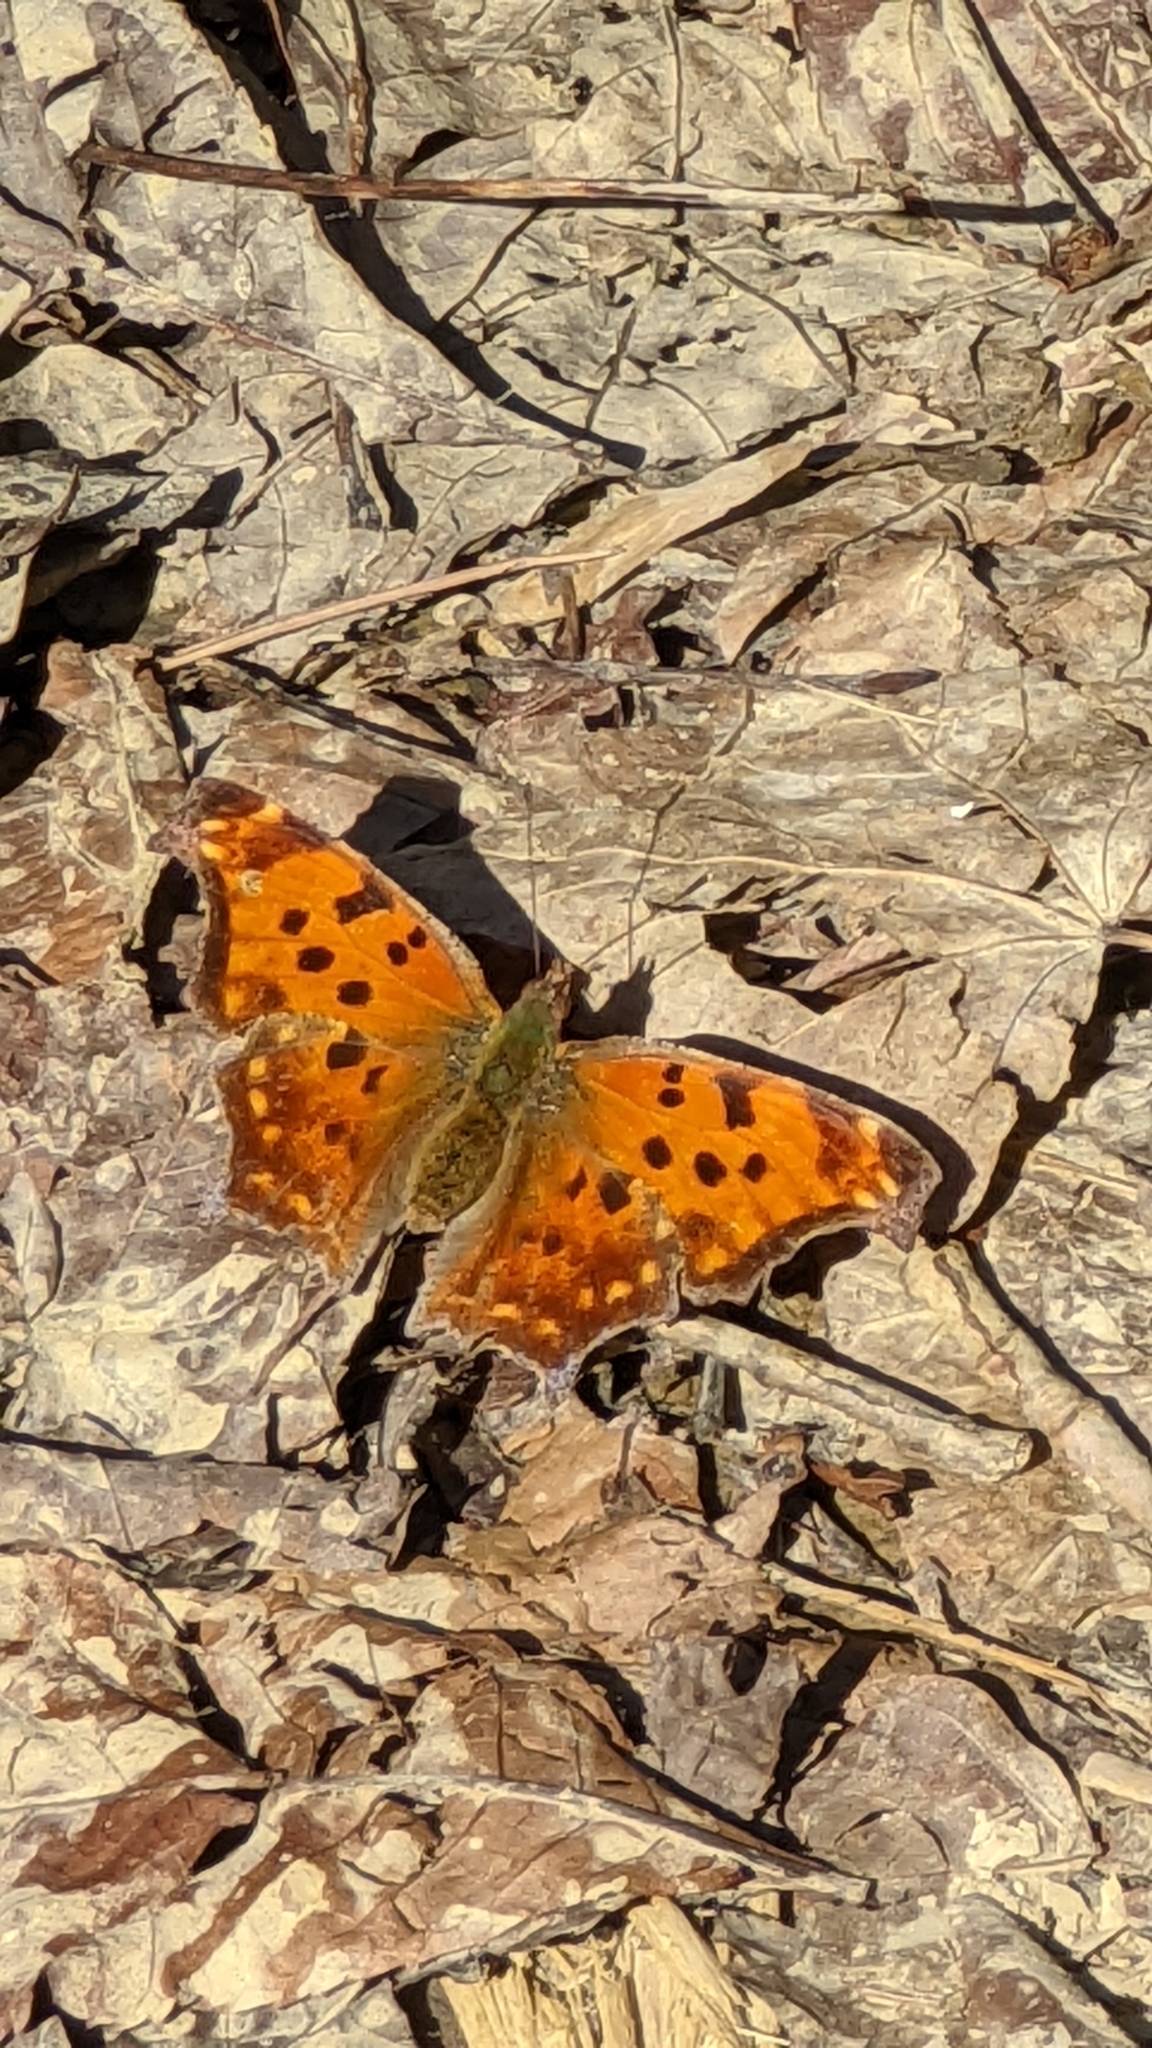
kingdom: Animalia
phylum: Arthropoda
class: Insecta
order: Lepidoptera
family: Nymphalidae
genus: Polygonia
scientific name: Polygonia comma
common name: Eastern comma
